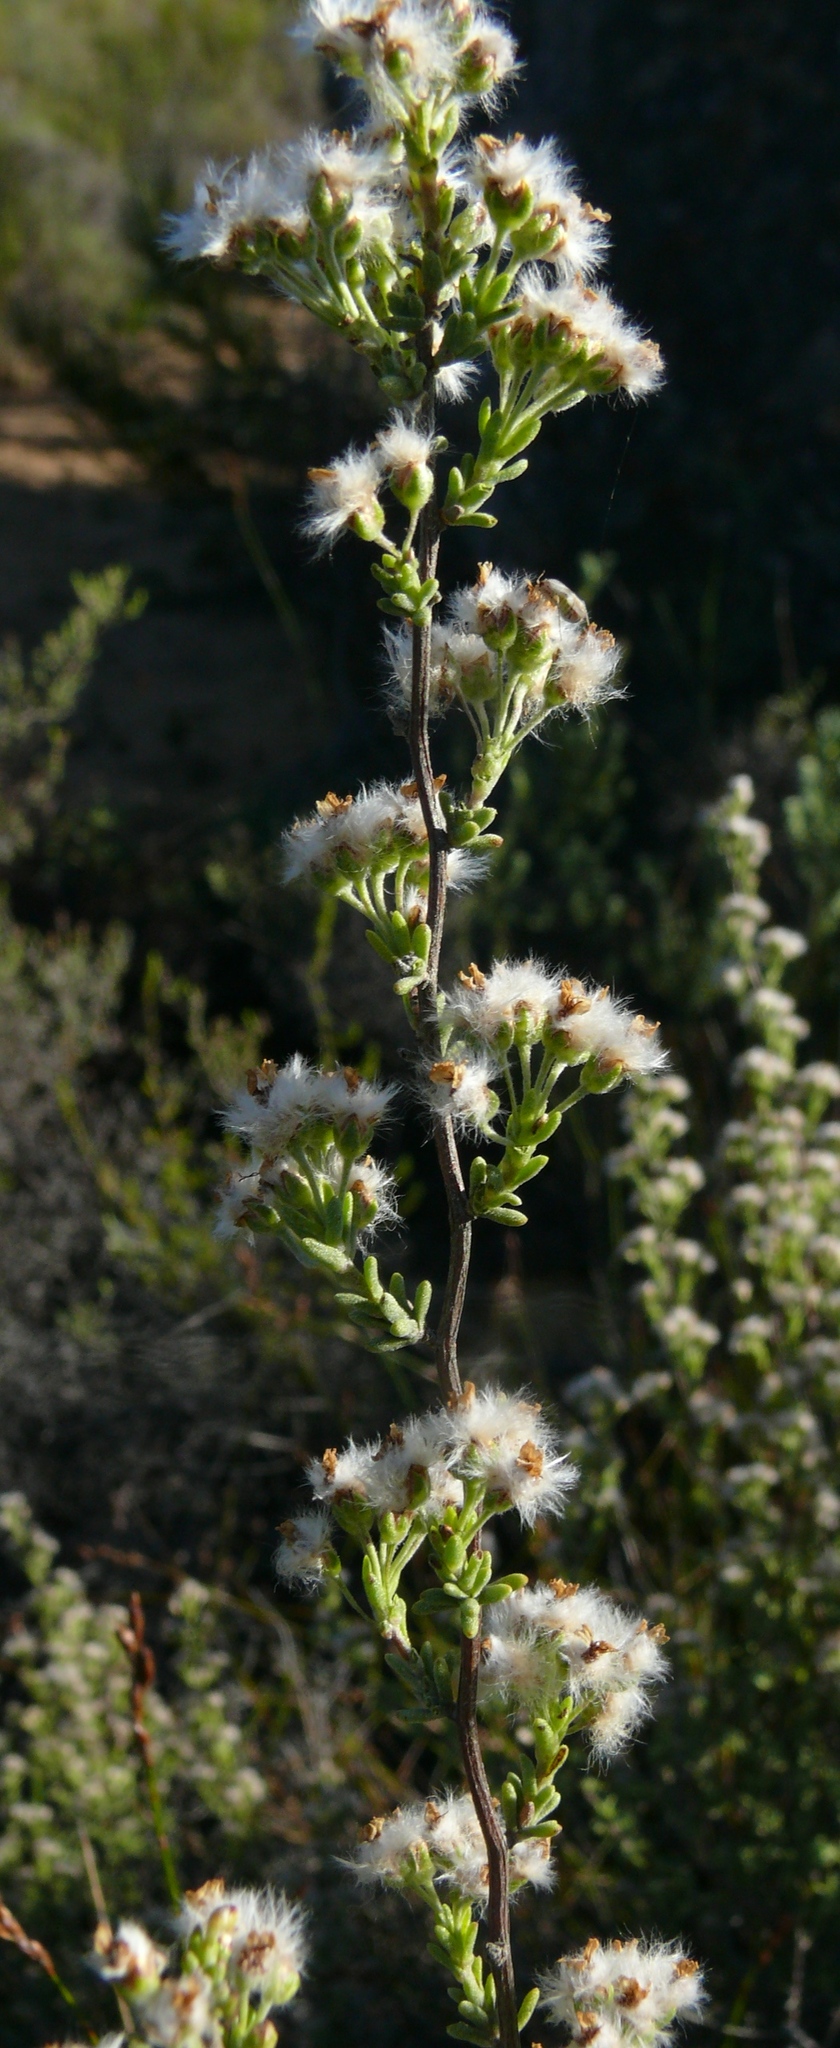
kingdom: Plantae
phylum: Tracheophyta
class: Magnoliopsida
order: Asterales
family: Asteraceae
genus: Eriocephalus
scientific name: Eriocephalus punctulatus
